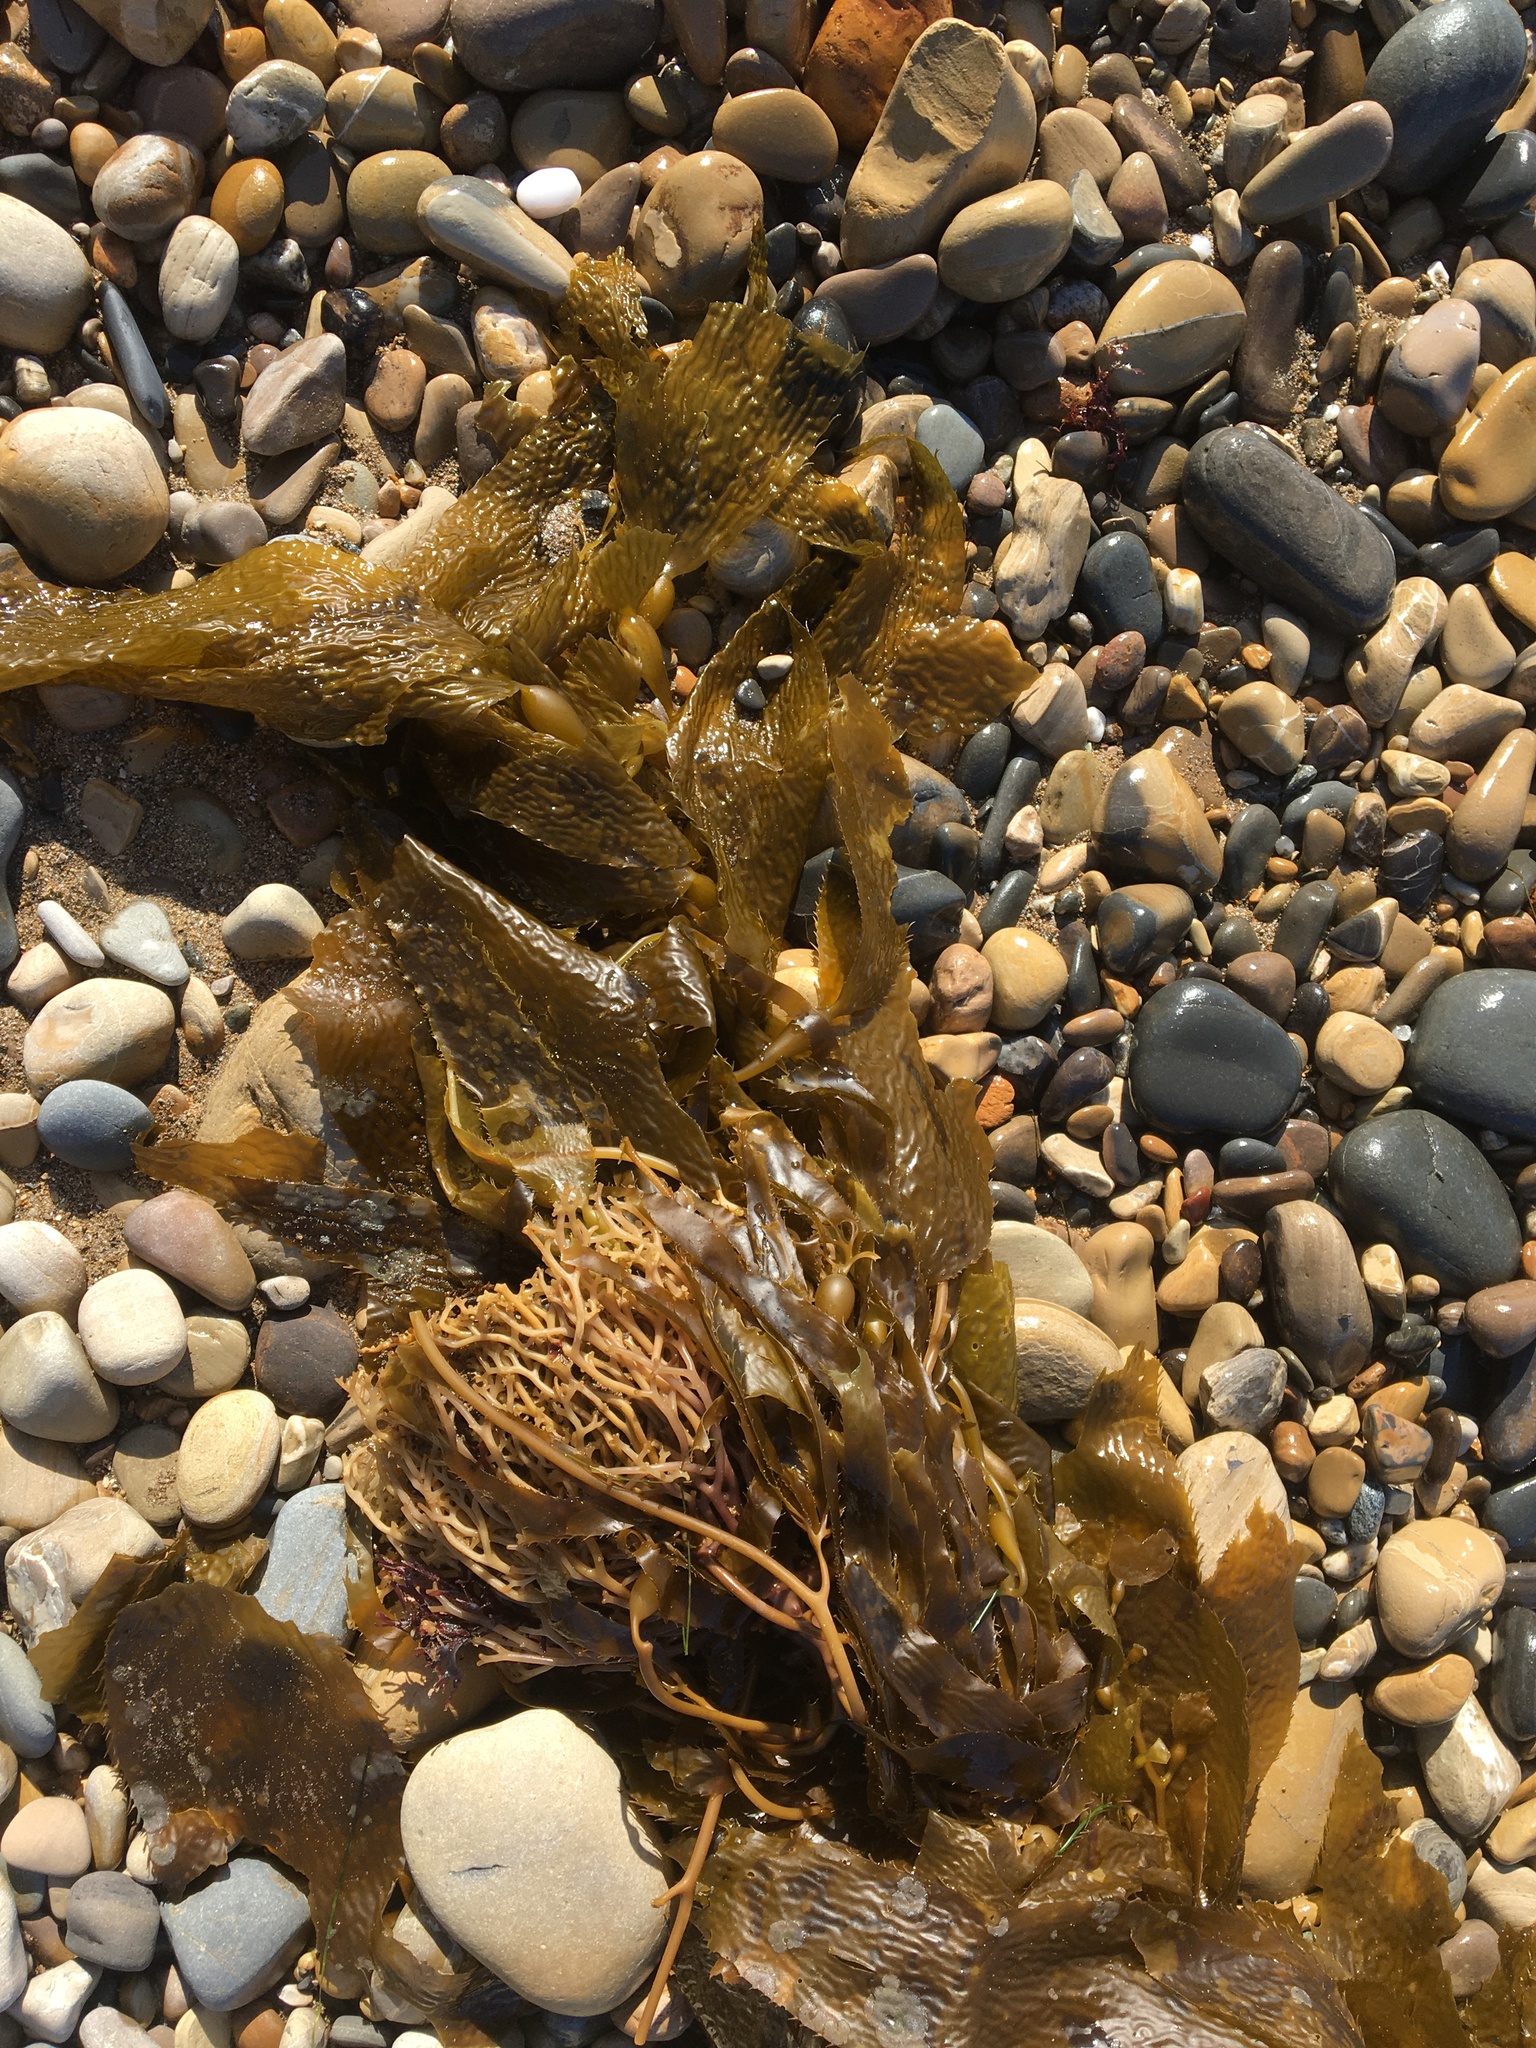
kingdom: Chromista
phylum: Ochrophyta
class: Phaeophyceae
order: Laminariales
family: Laminariaceae
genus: Macrocystis
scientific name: Macrocystis pyrifera
